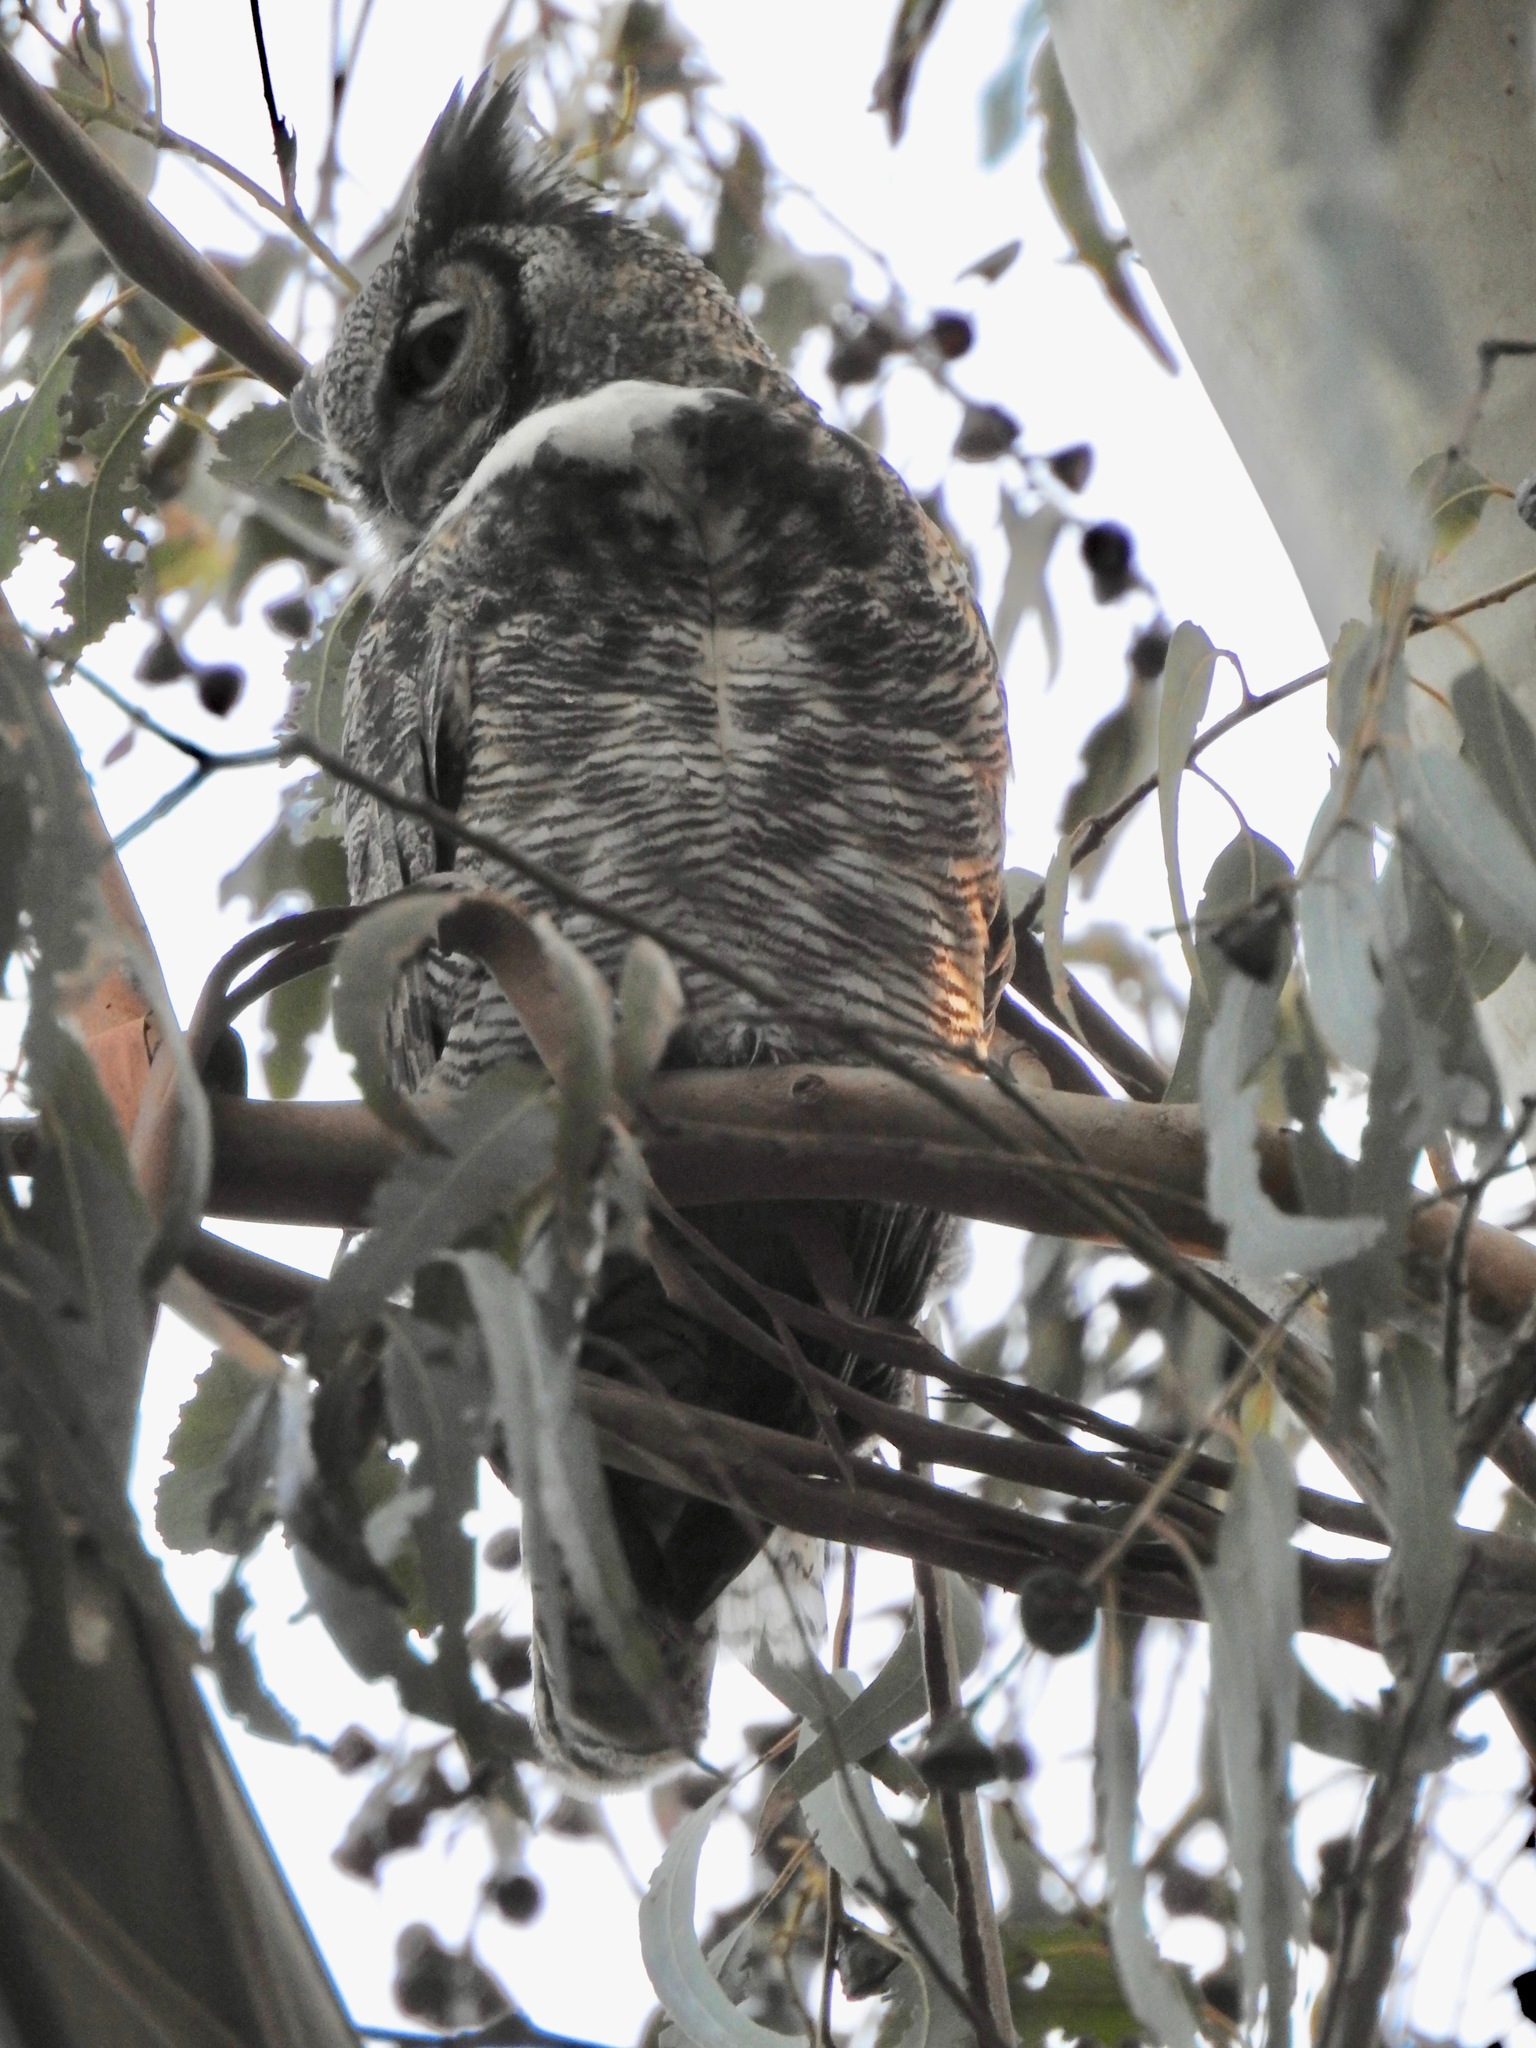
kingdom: Animalia
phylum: Chordata
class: Aves
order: Strigiformes
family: Strigidae
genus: Bubo
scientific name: Bubo virginianus
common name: Great horned owl
